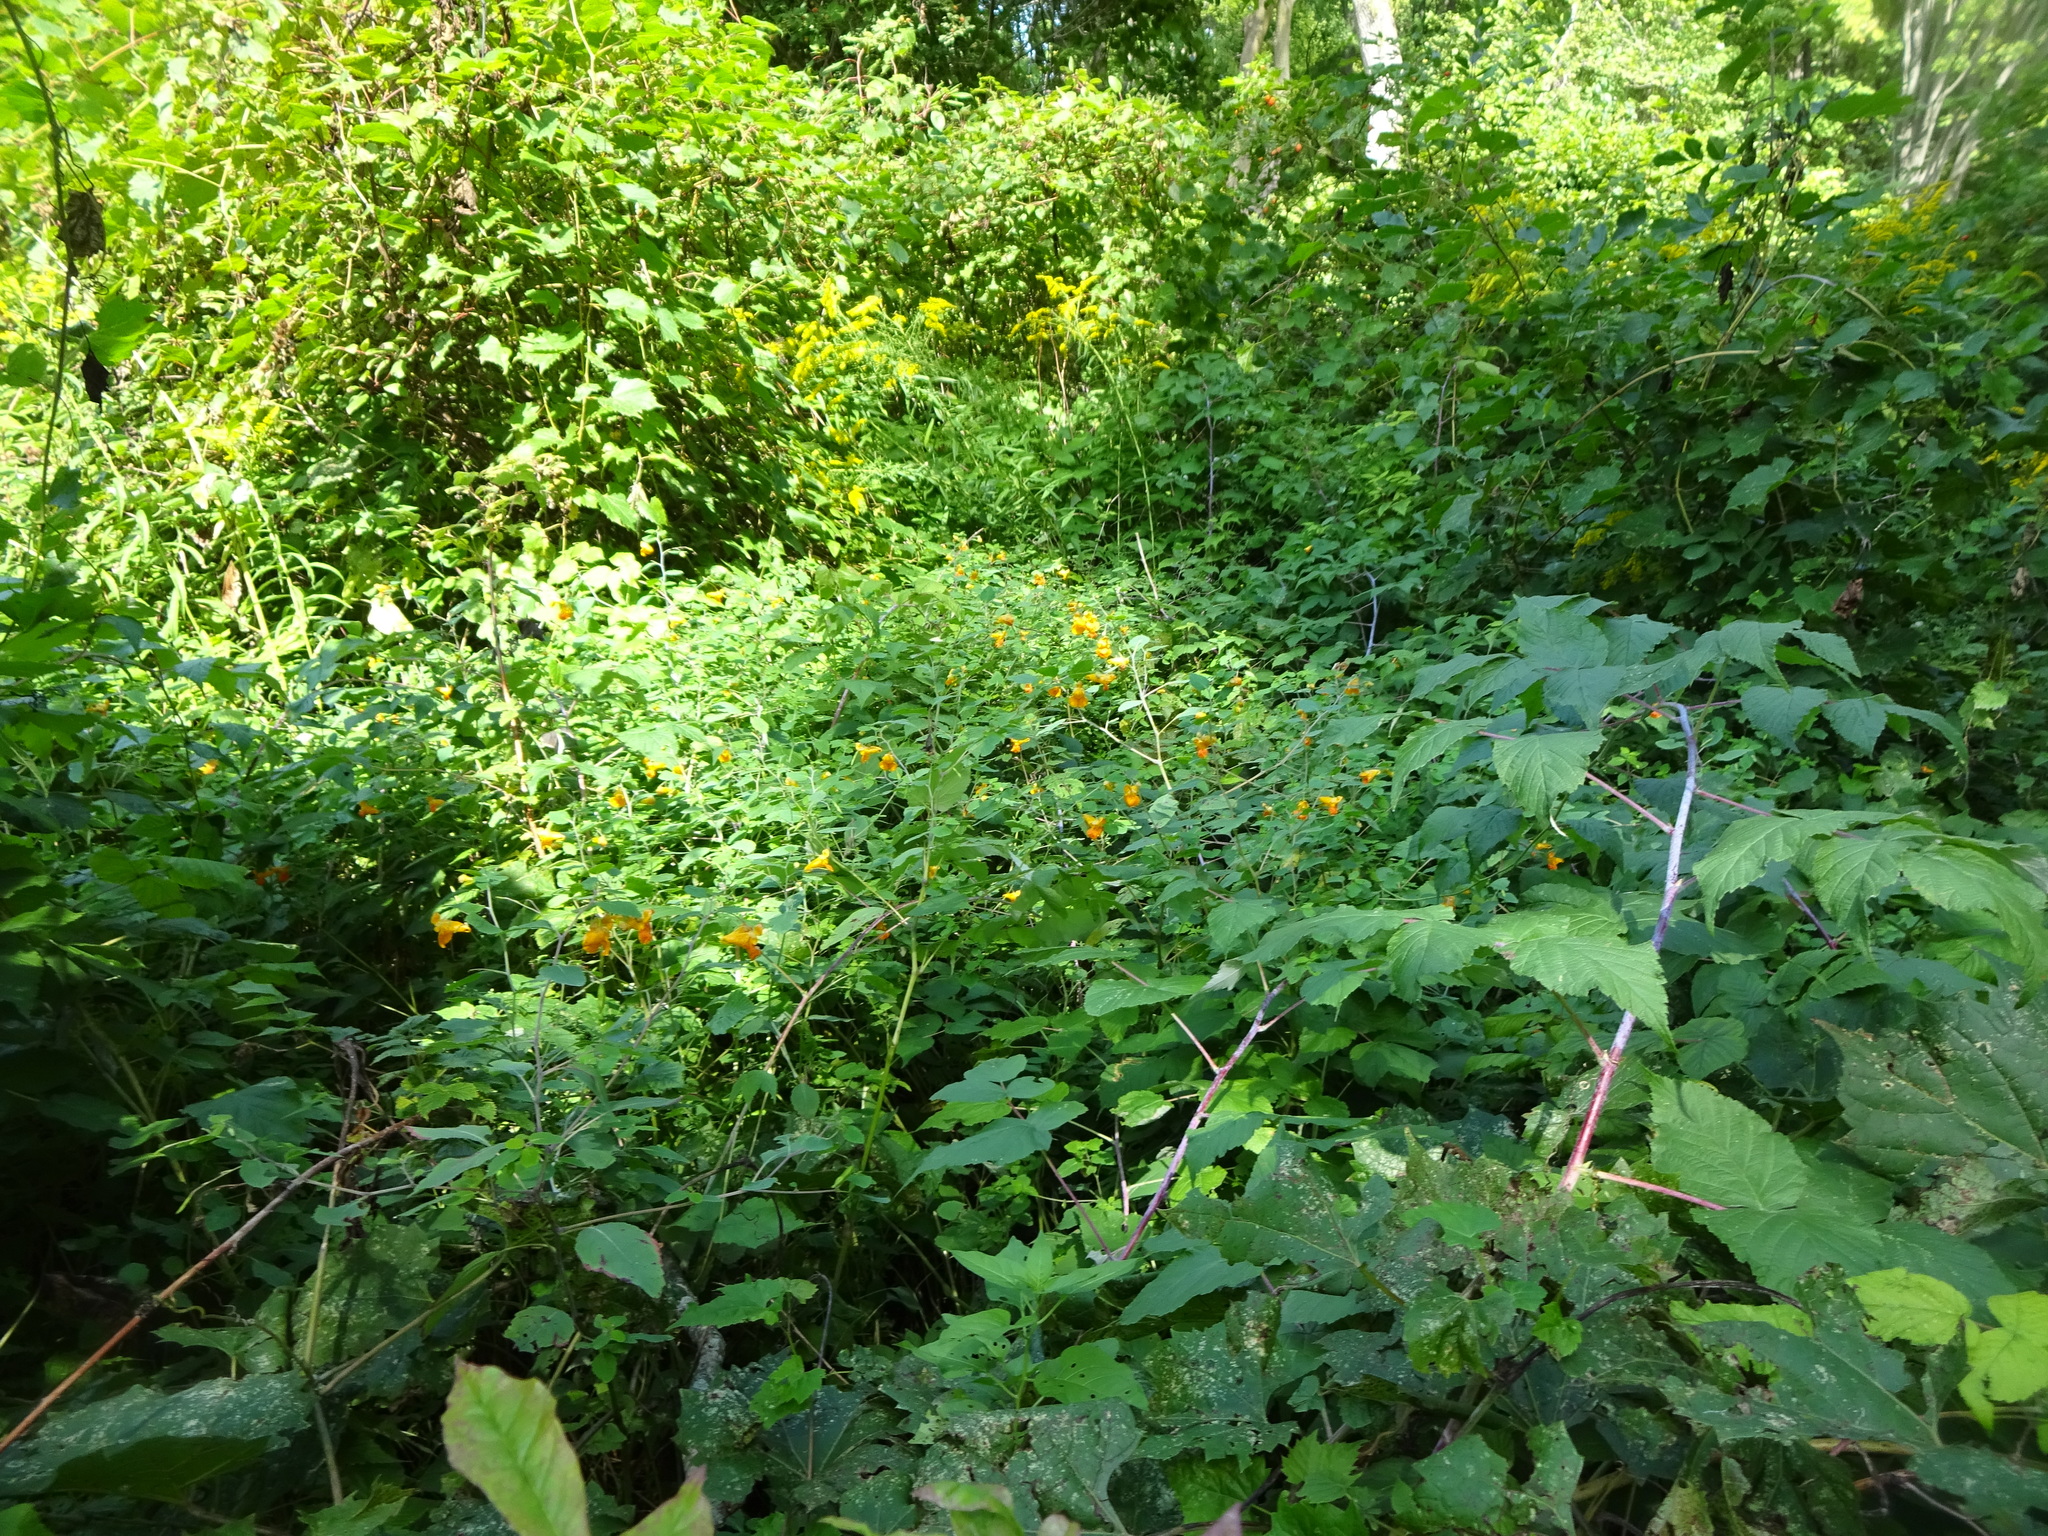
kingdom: Plantae
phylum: Tracheophyta
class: Magnoliopsida
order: Ericales
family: Balsaminaceae
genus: Impatiens
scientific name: Impatiens capensis
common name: Orange balsam
